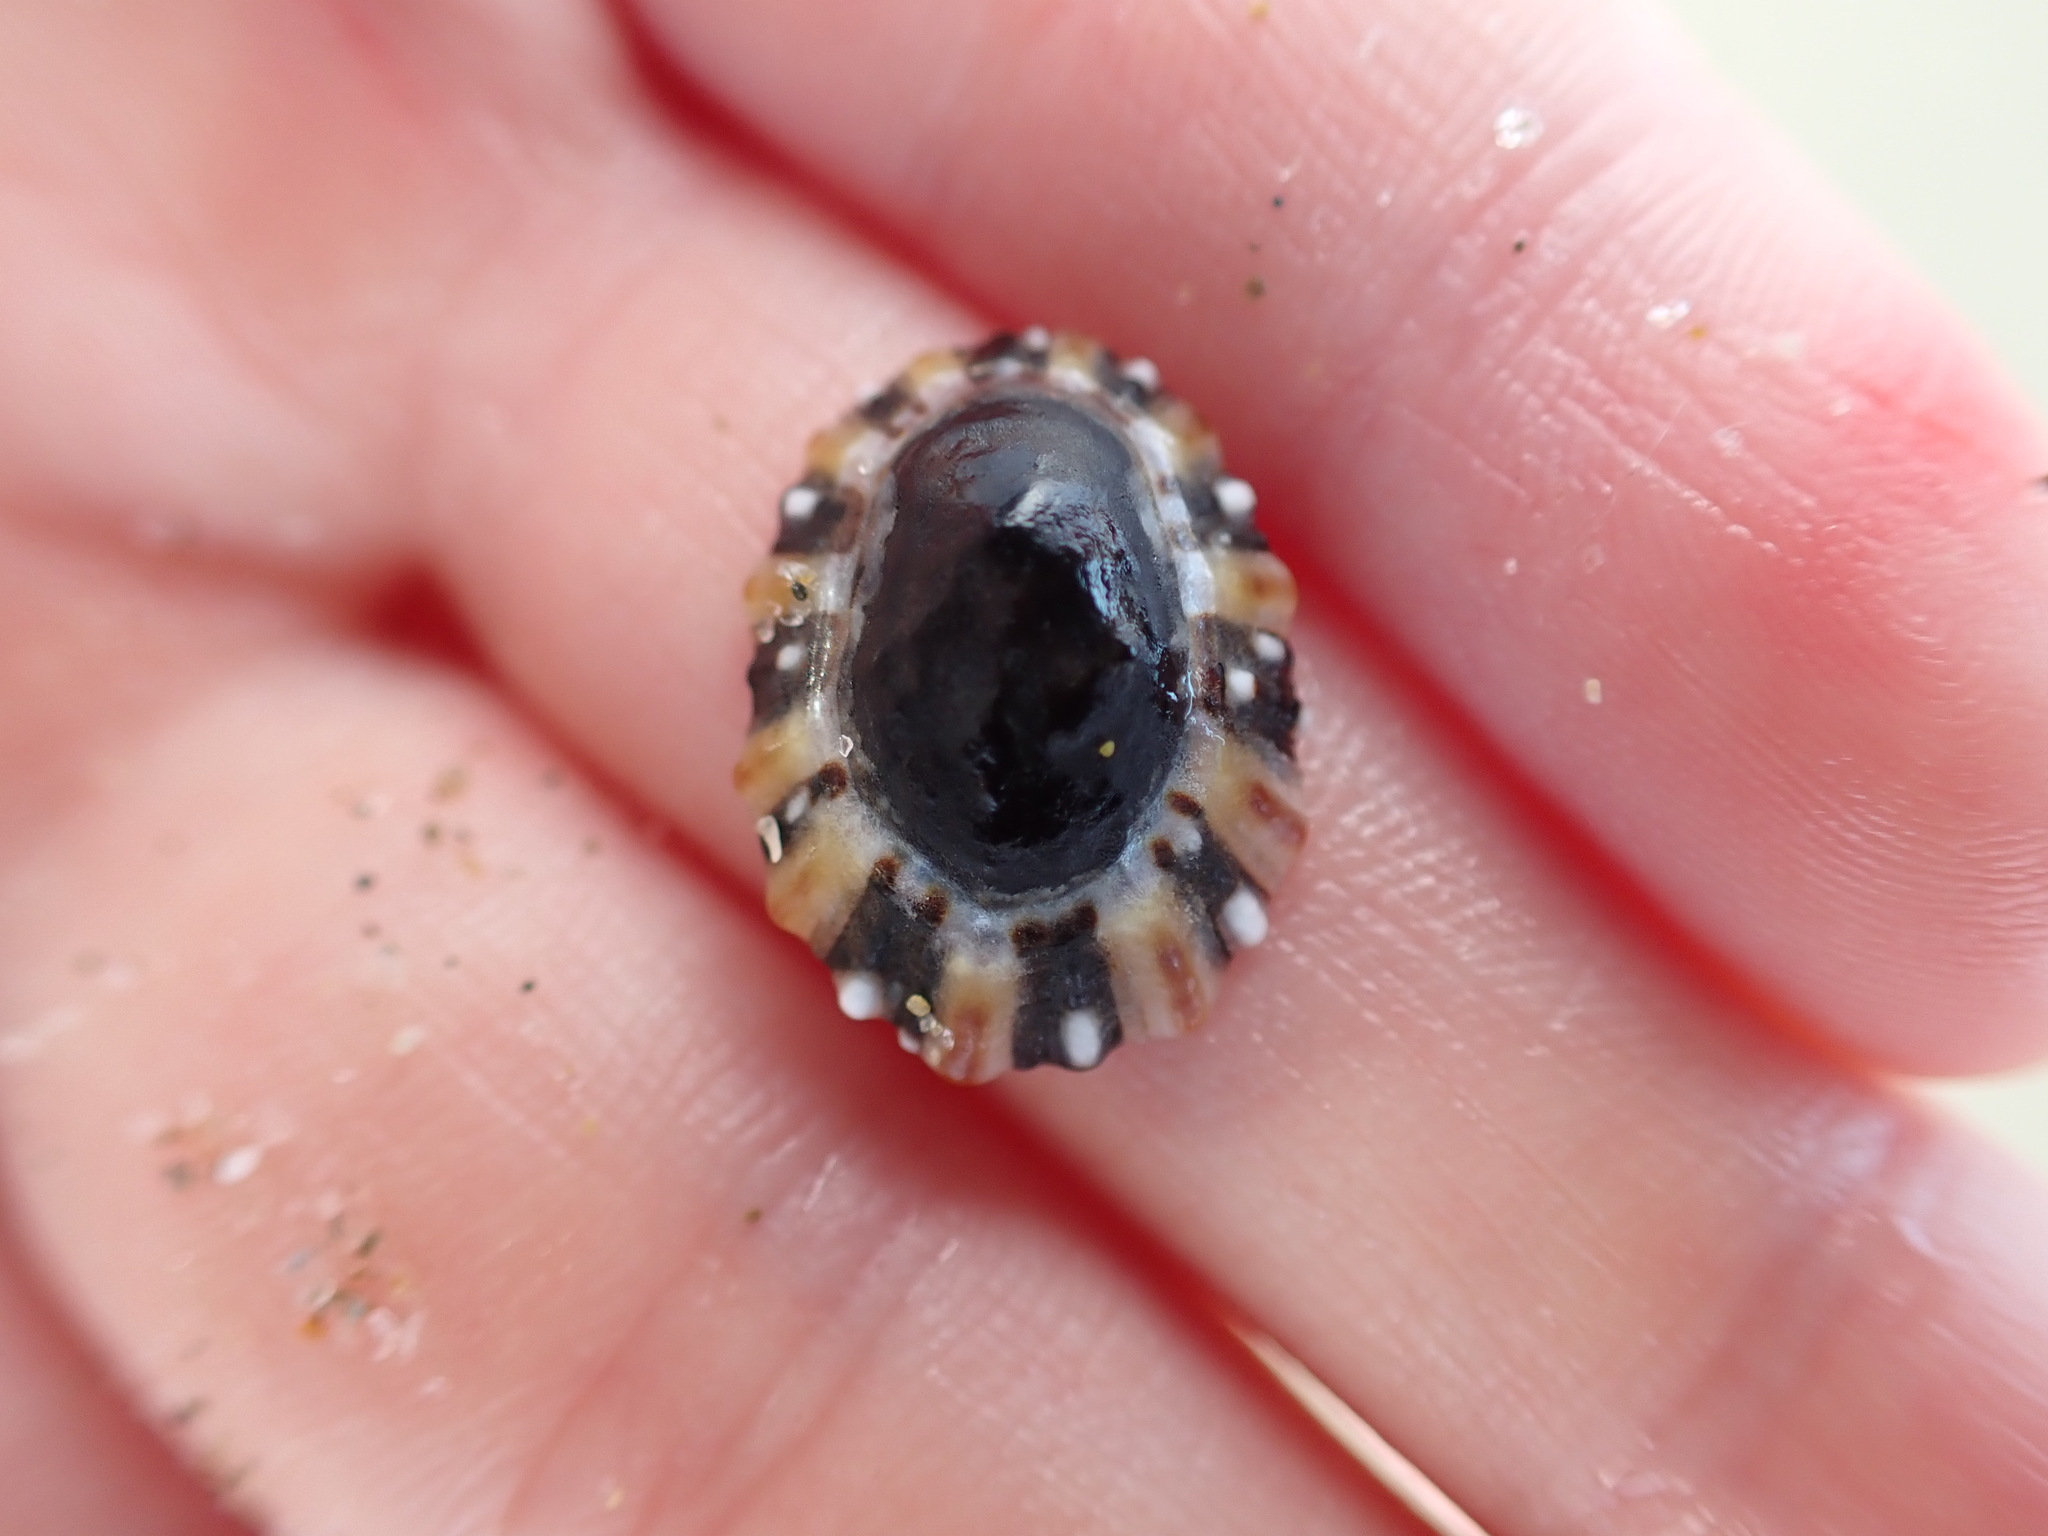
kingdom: Animalia
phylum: Mollusca
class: Gastropoda
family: Nacellidae
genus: Cellana
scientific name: Cellana ornata
